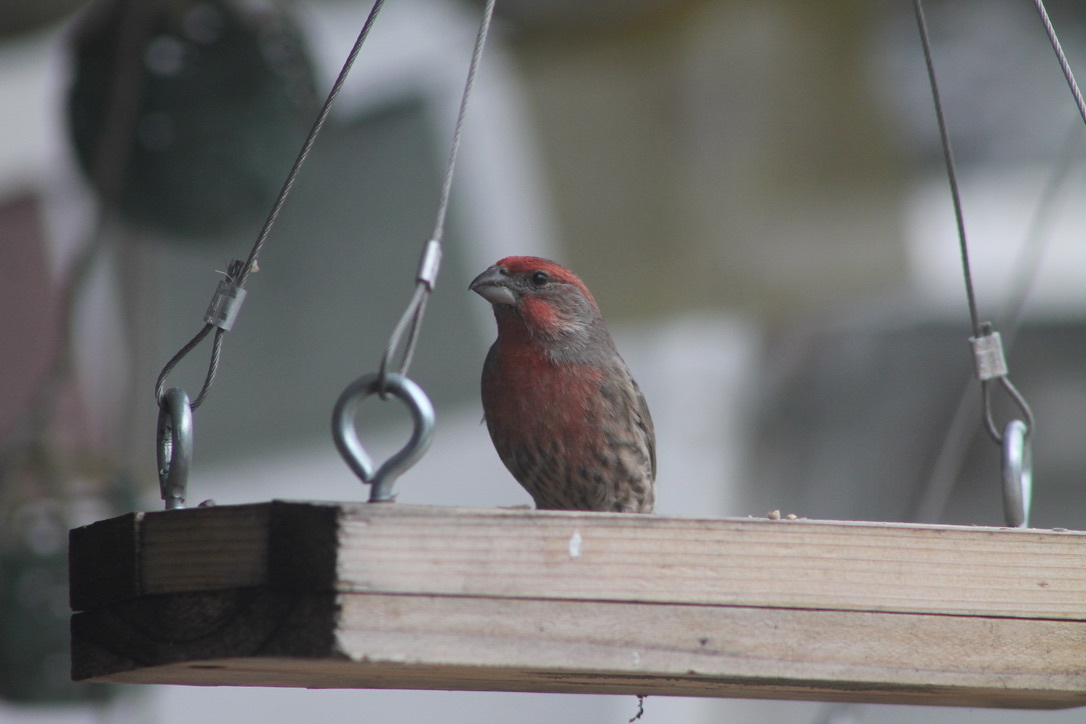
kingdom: Animalia
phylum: Chordata
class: Aves
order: Passeriformes
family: Fringillidae
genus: Haemorhous
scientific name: Haemorhous mexicanus
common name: House finch
